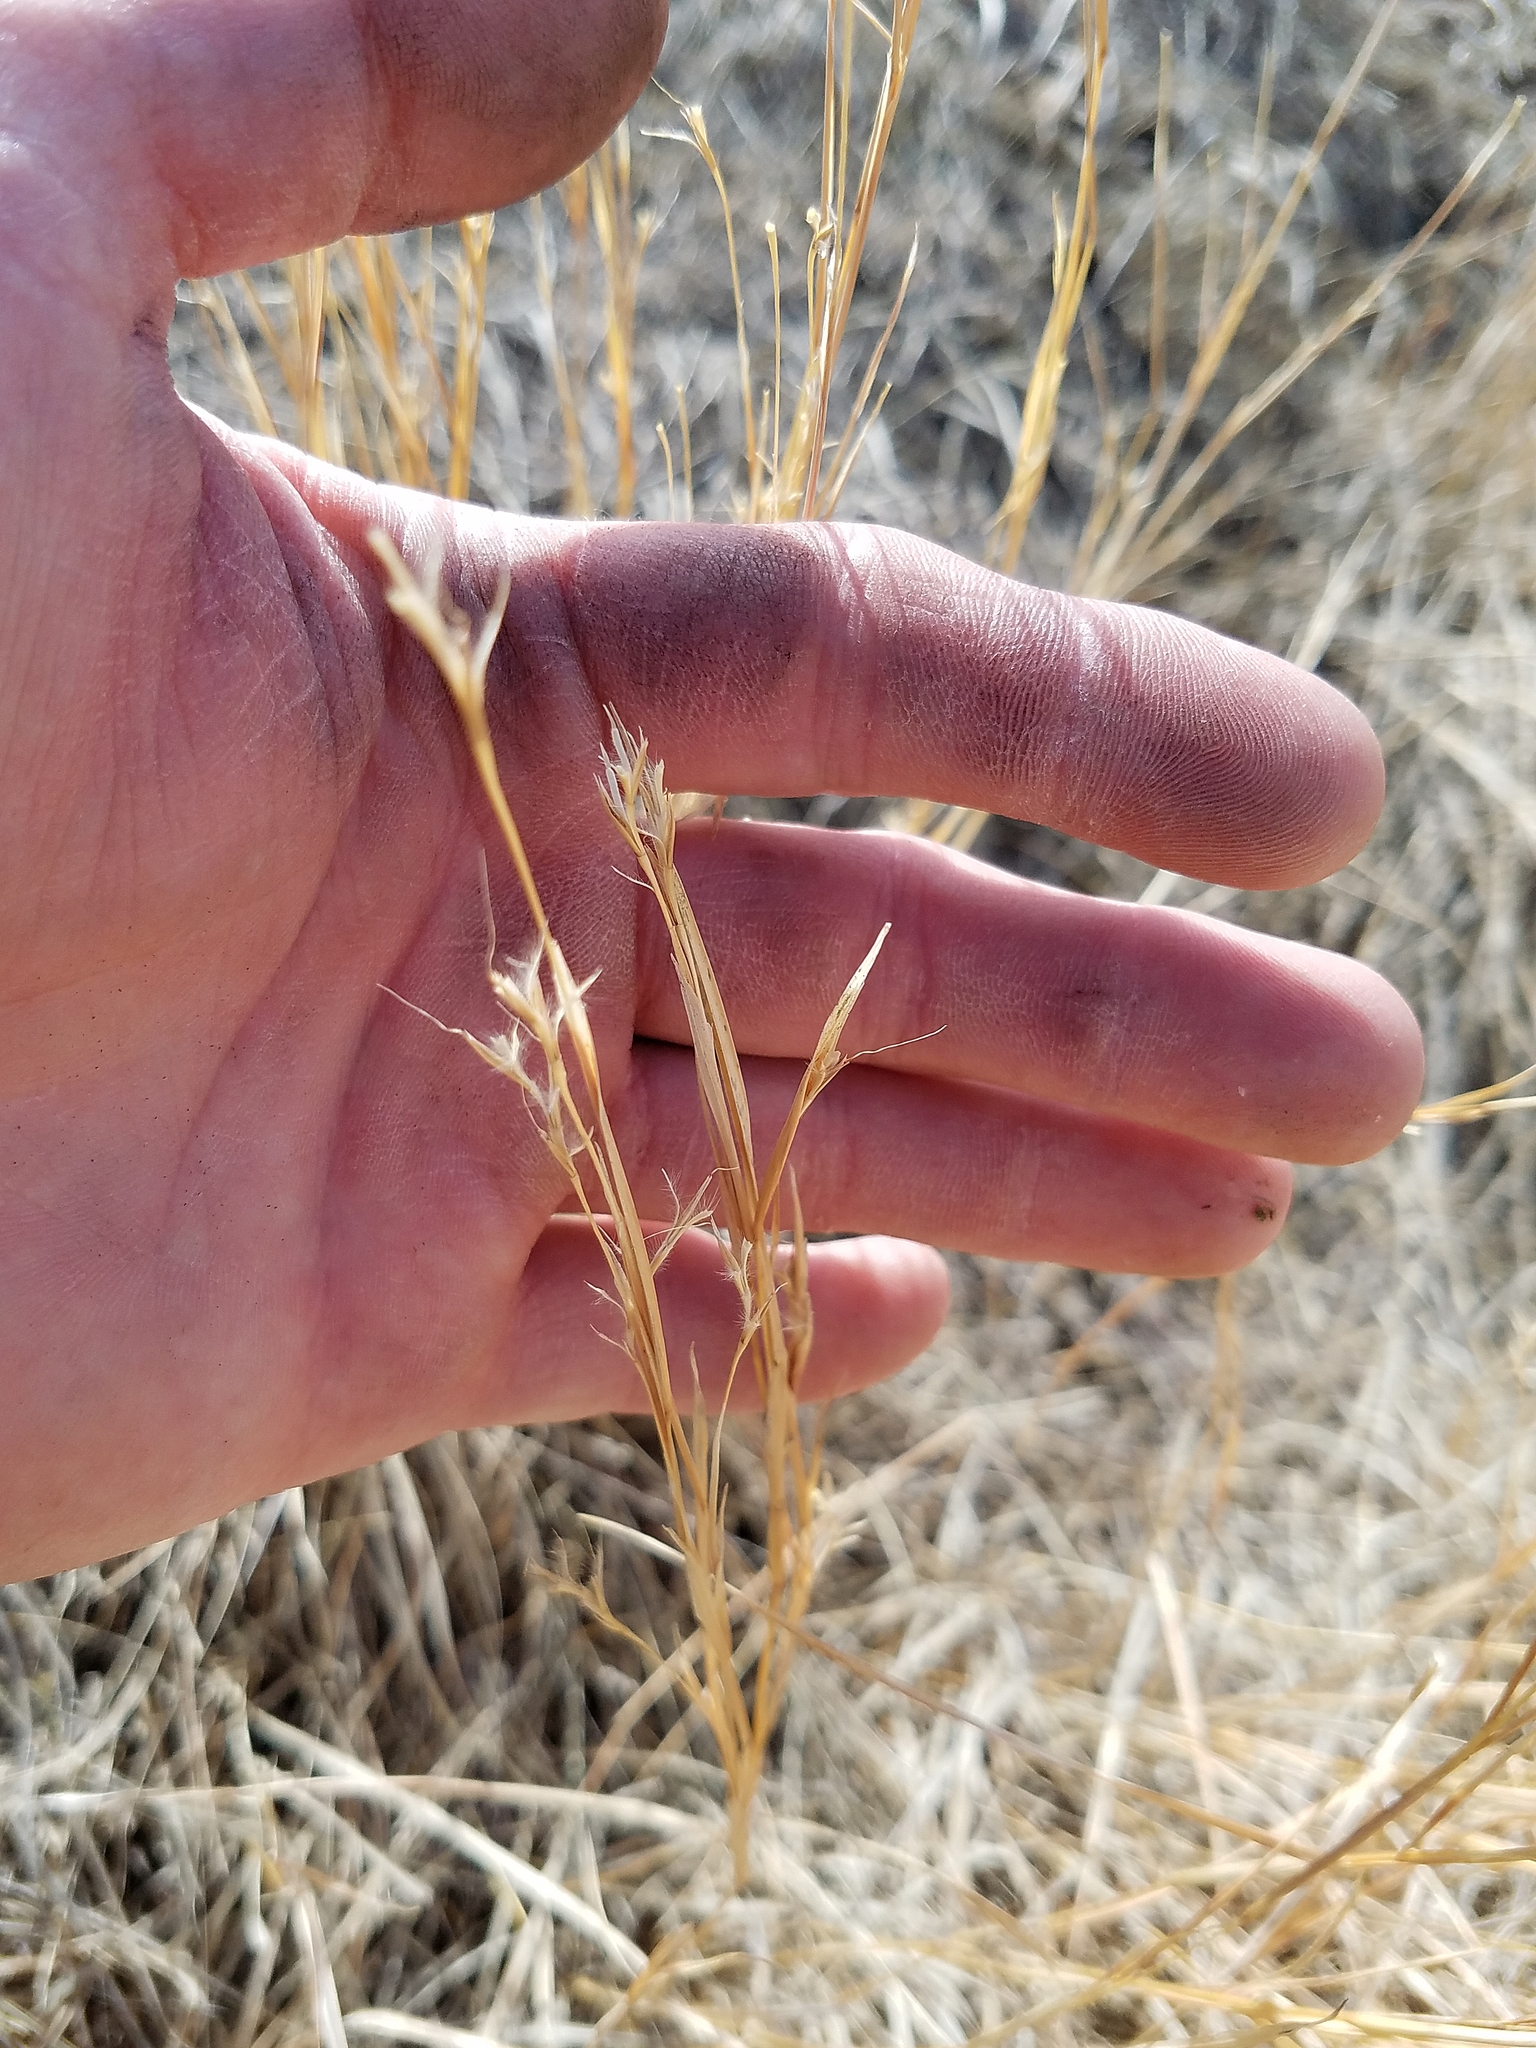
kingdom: Plantae
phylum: Tracheophyta
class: Liliopsida
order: Poales
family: Poaceae
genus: Schizachyrium
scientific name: Schizachyrium scoparium
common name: Little bluestem
